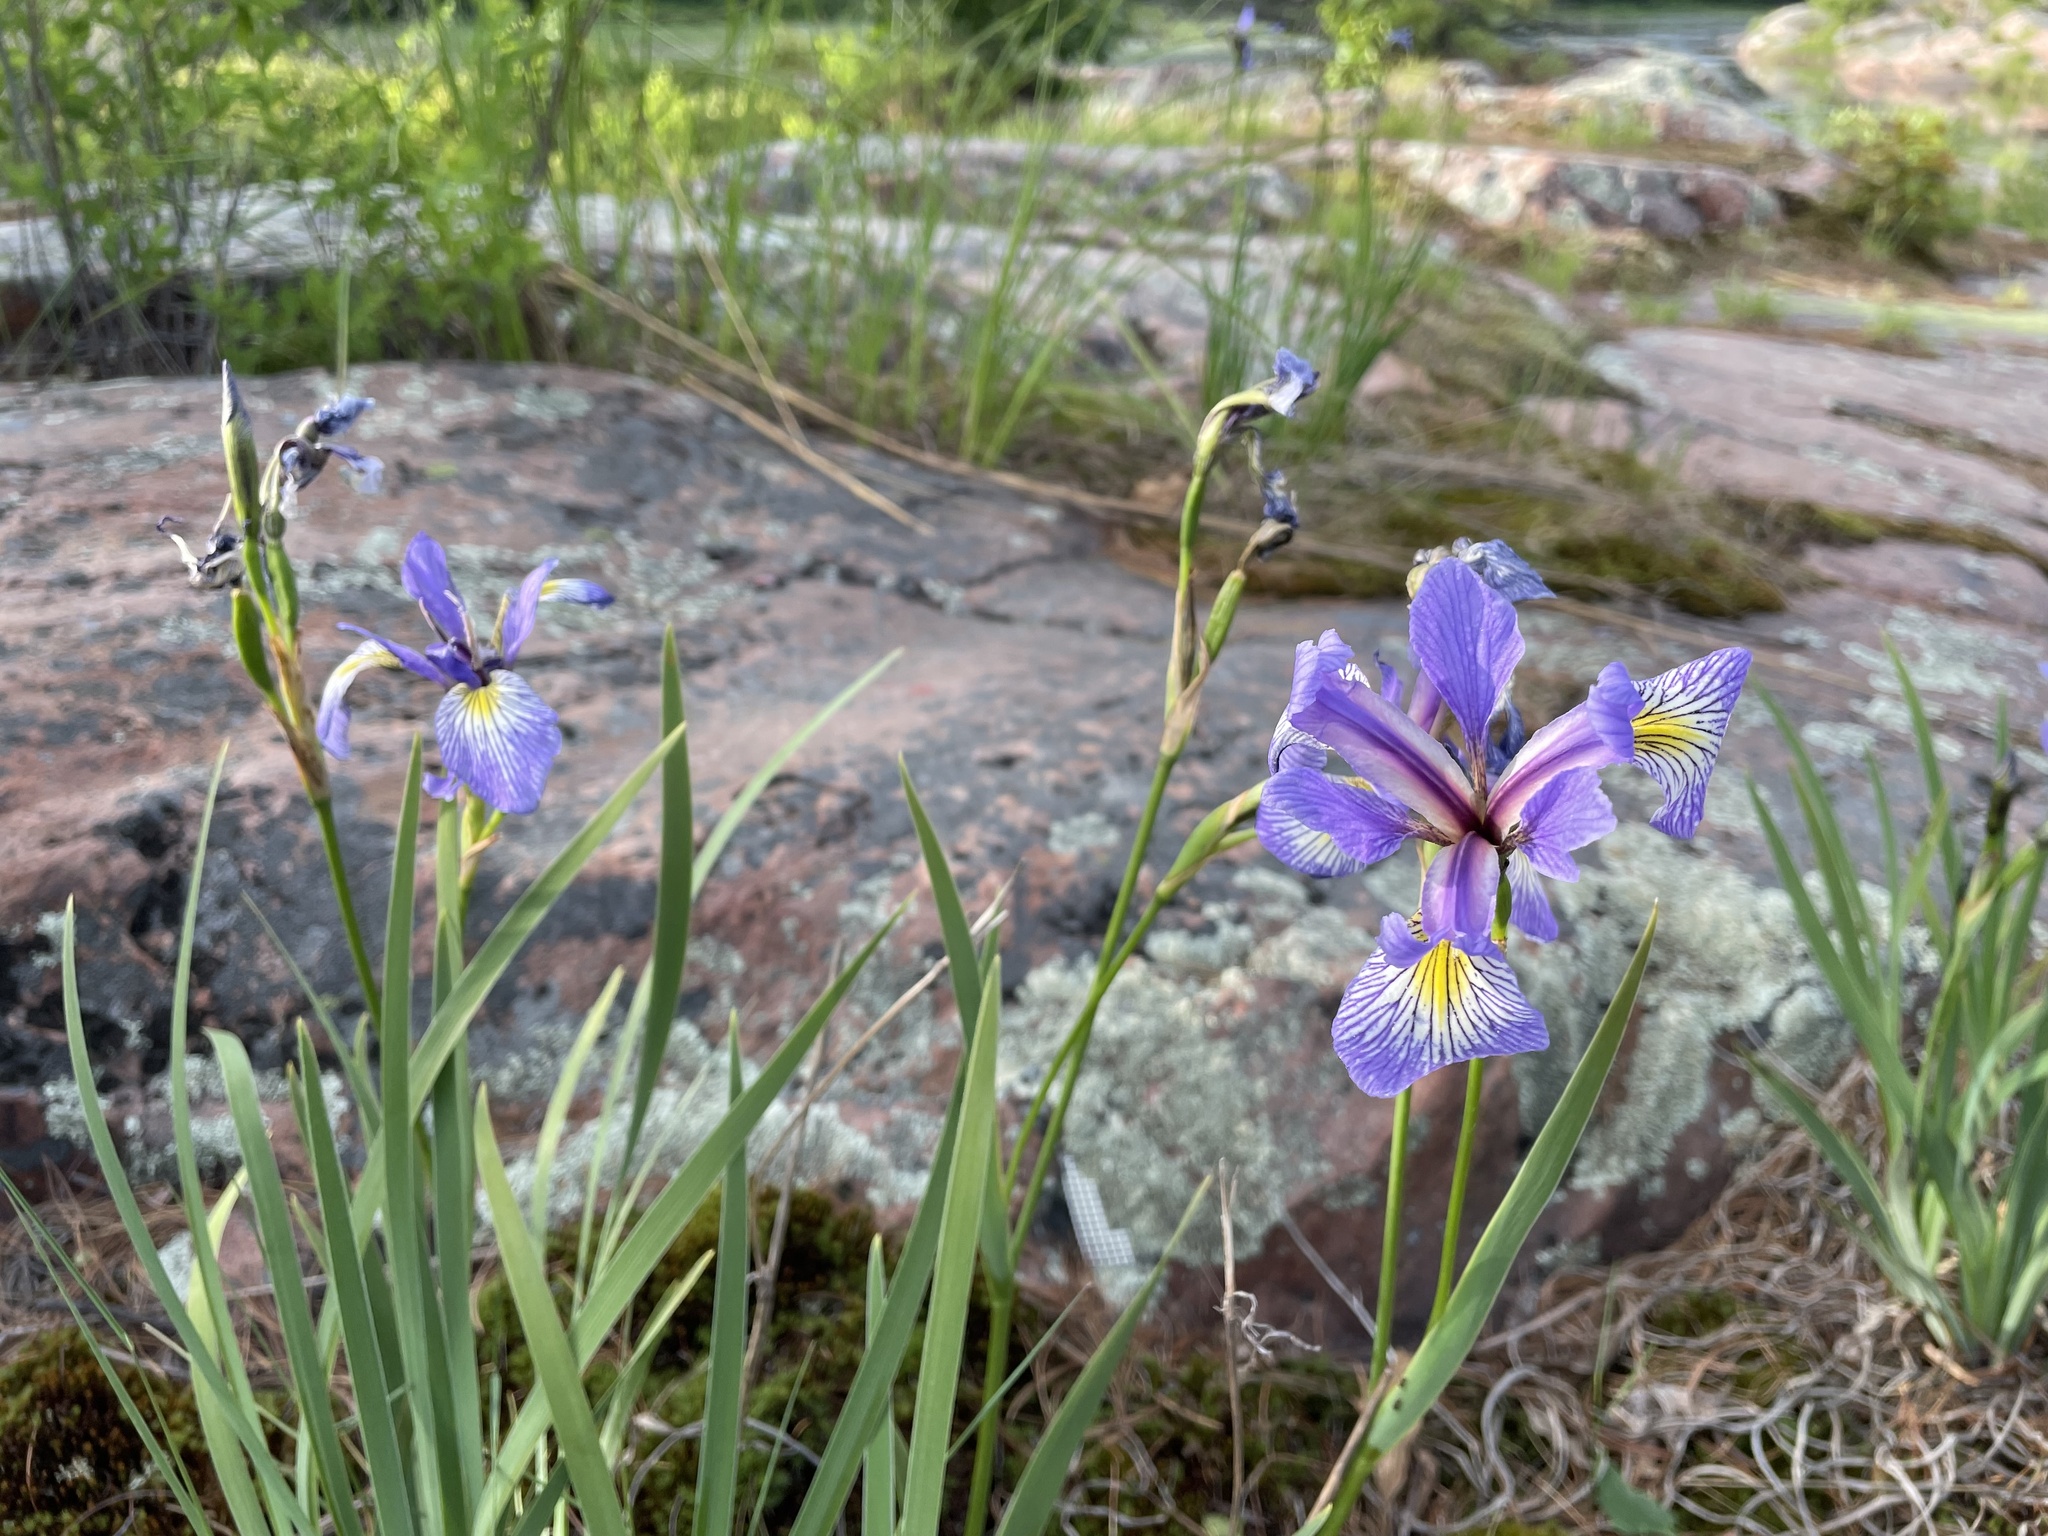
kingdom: Plantae
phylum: Tracheophyta
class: Liliopsida
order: Asparagales
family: Iridaceae
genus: Iris
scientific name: Iris versicolor
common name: Purple iris
